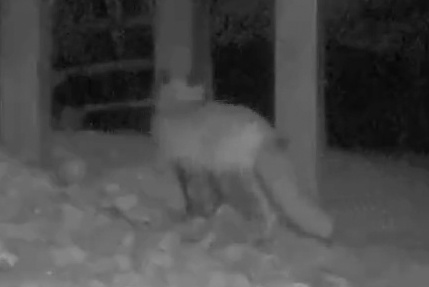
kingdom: Animalia
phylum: Chordata
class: Mammalia
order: Carnivora
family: Canidae
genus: Vulpes
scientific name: Vulpes vulpes
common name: Red fox
